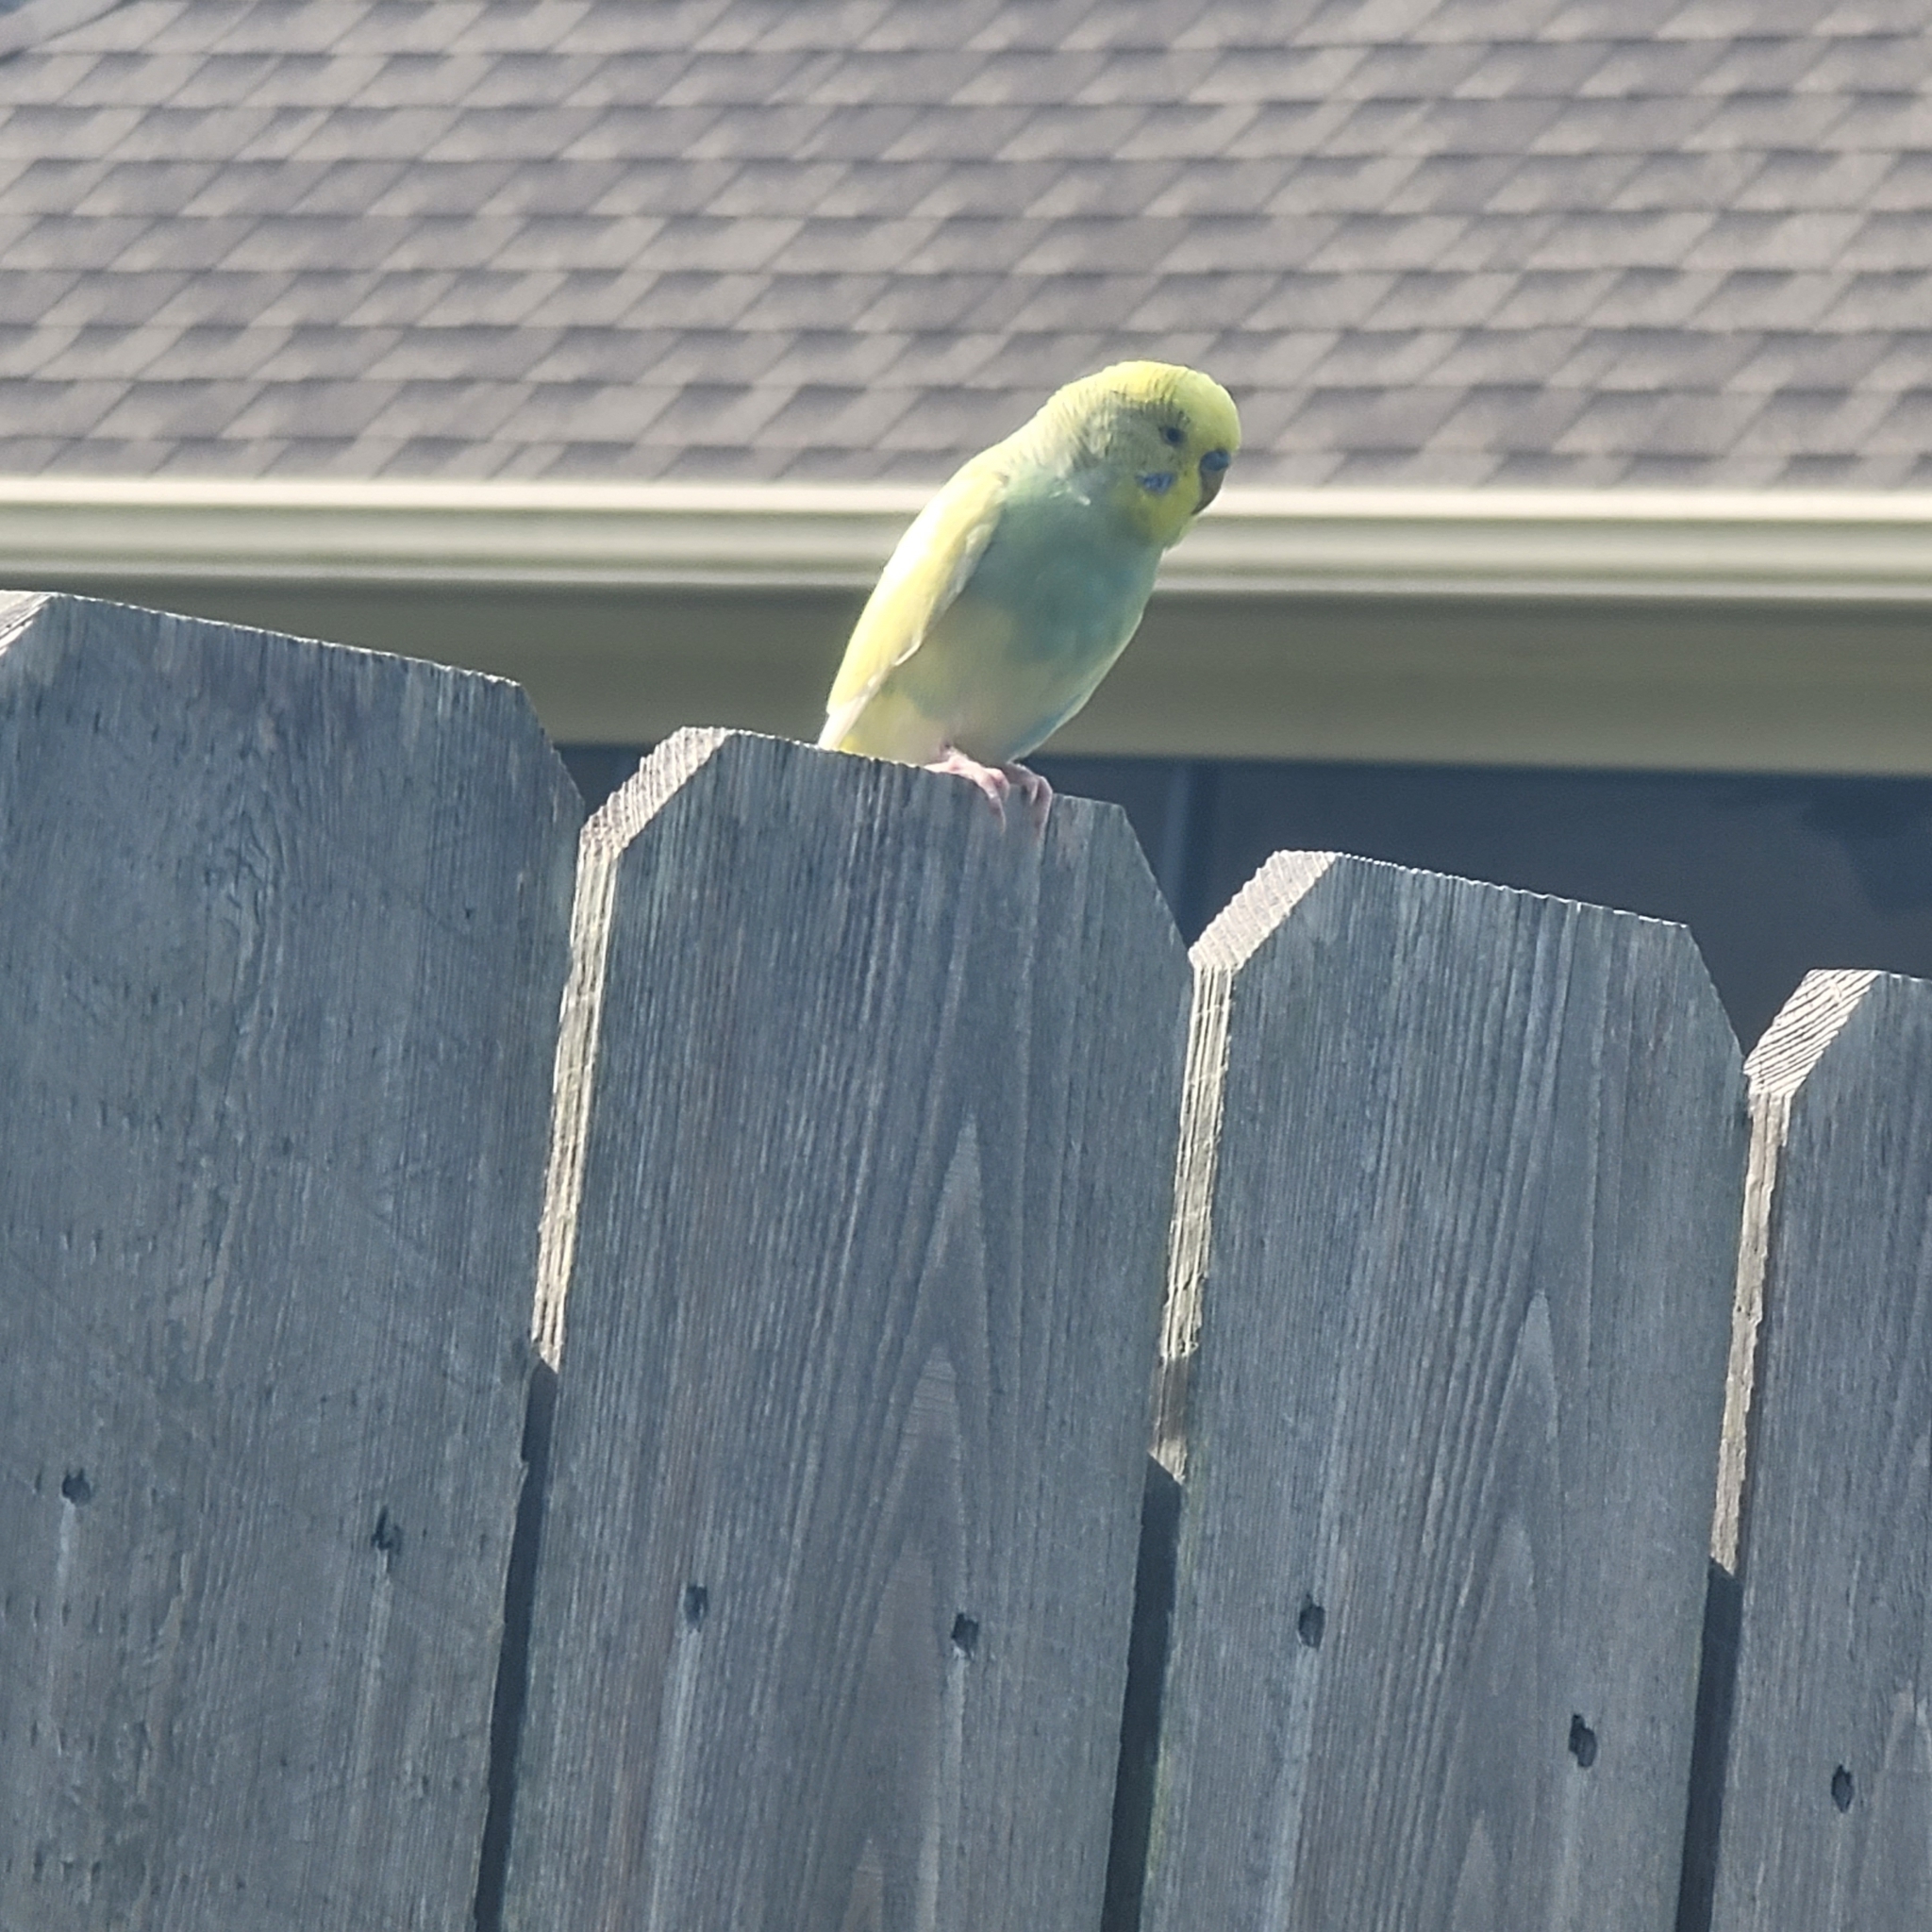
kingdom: Animalia
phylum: Chordata
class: Aves
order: Psittaciformes
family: Psittacidae
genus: Melopsittacus
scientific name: Melopsittacus undulatus
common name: Budgerigar
